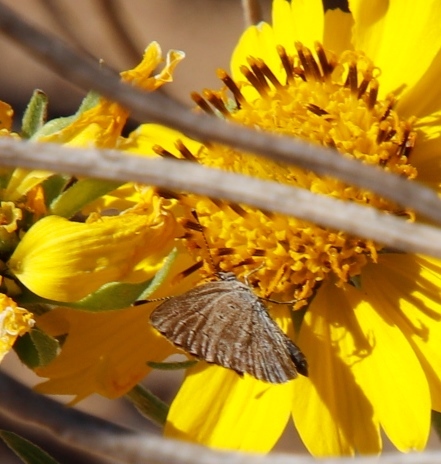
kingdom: Animalia
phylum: Arthropoda
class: Insecta
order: Lepidoptera
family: Lycaenidae
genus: Zizeeria
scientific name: Zizeeria knysna
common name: African grass blue
